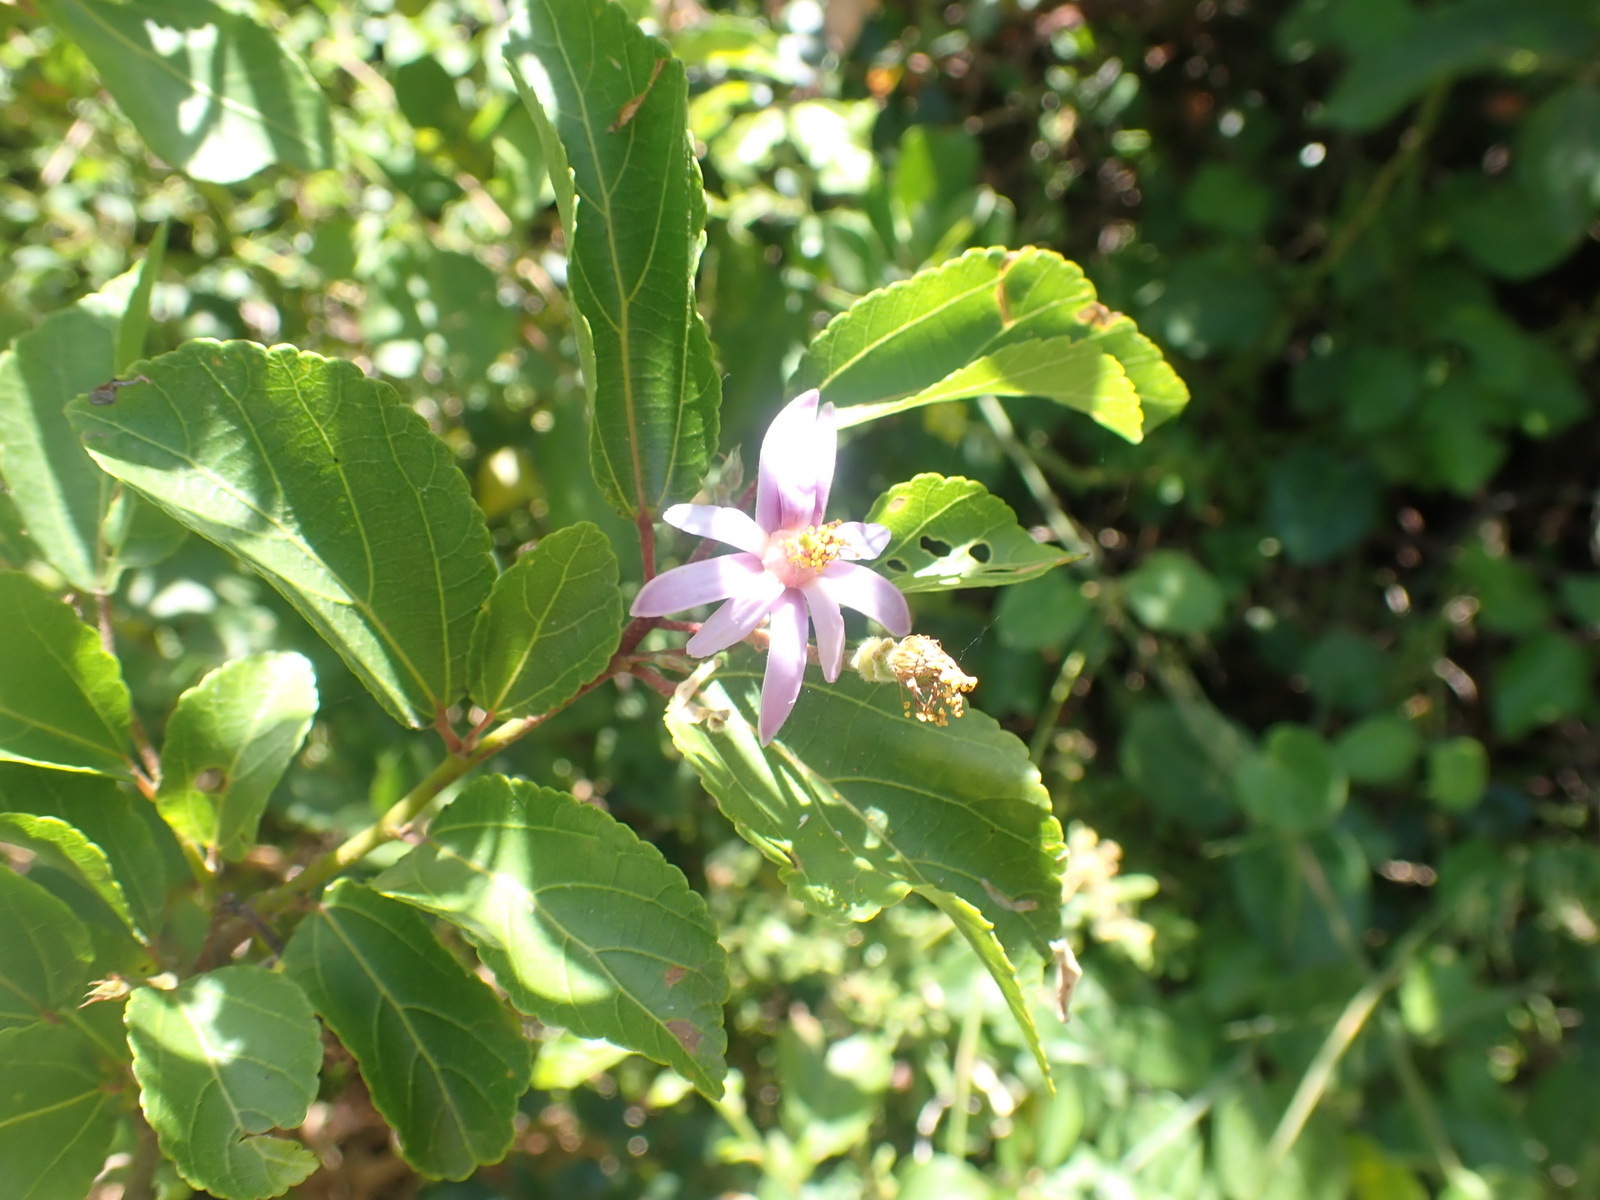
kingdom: Plantae
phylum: Tracheophyta
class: Magnoliopsida
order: Malvales
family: Malvaceae
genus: Grewia
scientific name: Grewia occidentalis
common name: Crossberry
